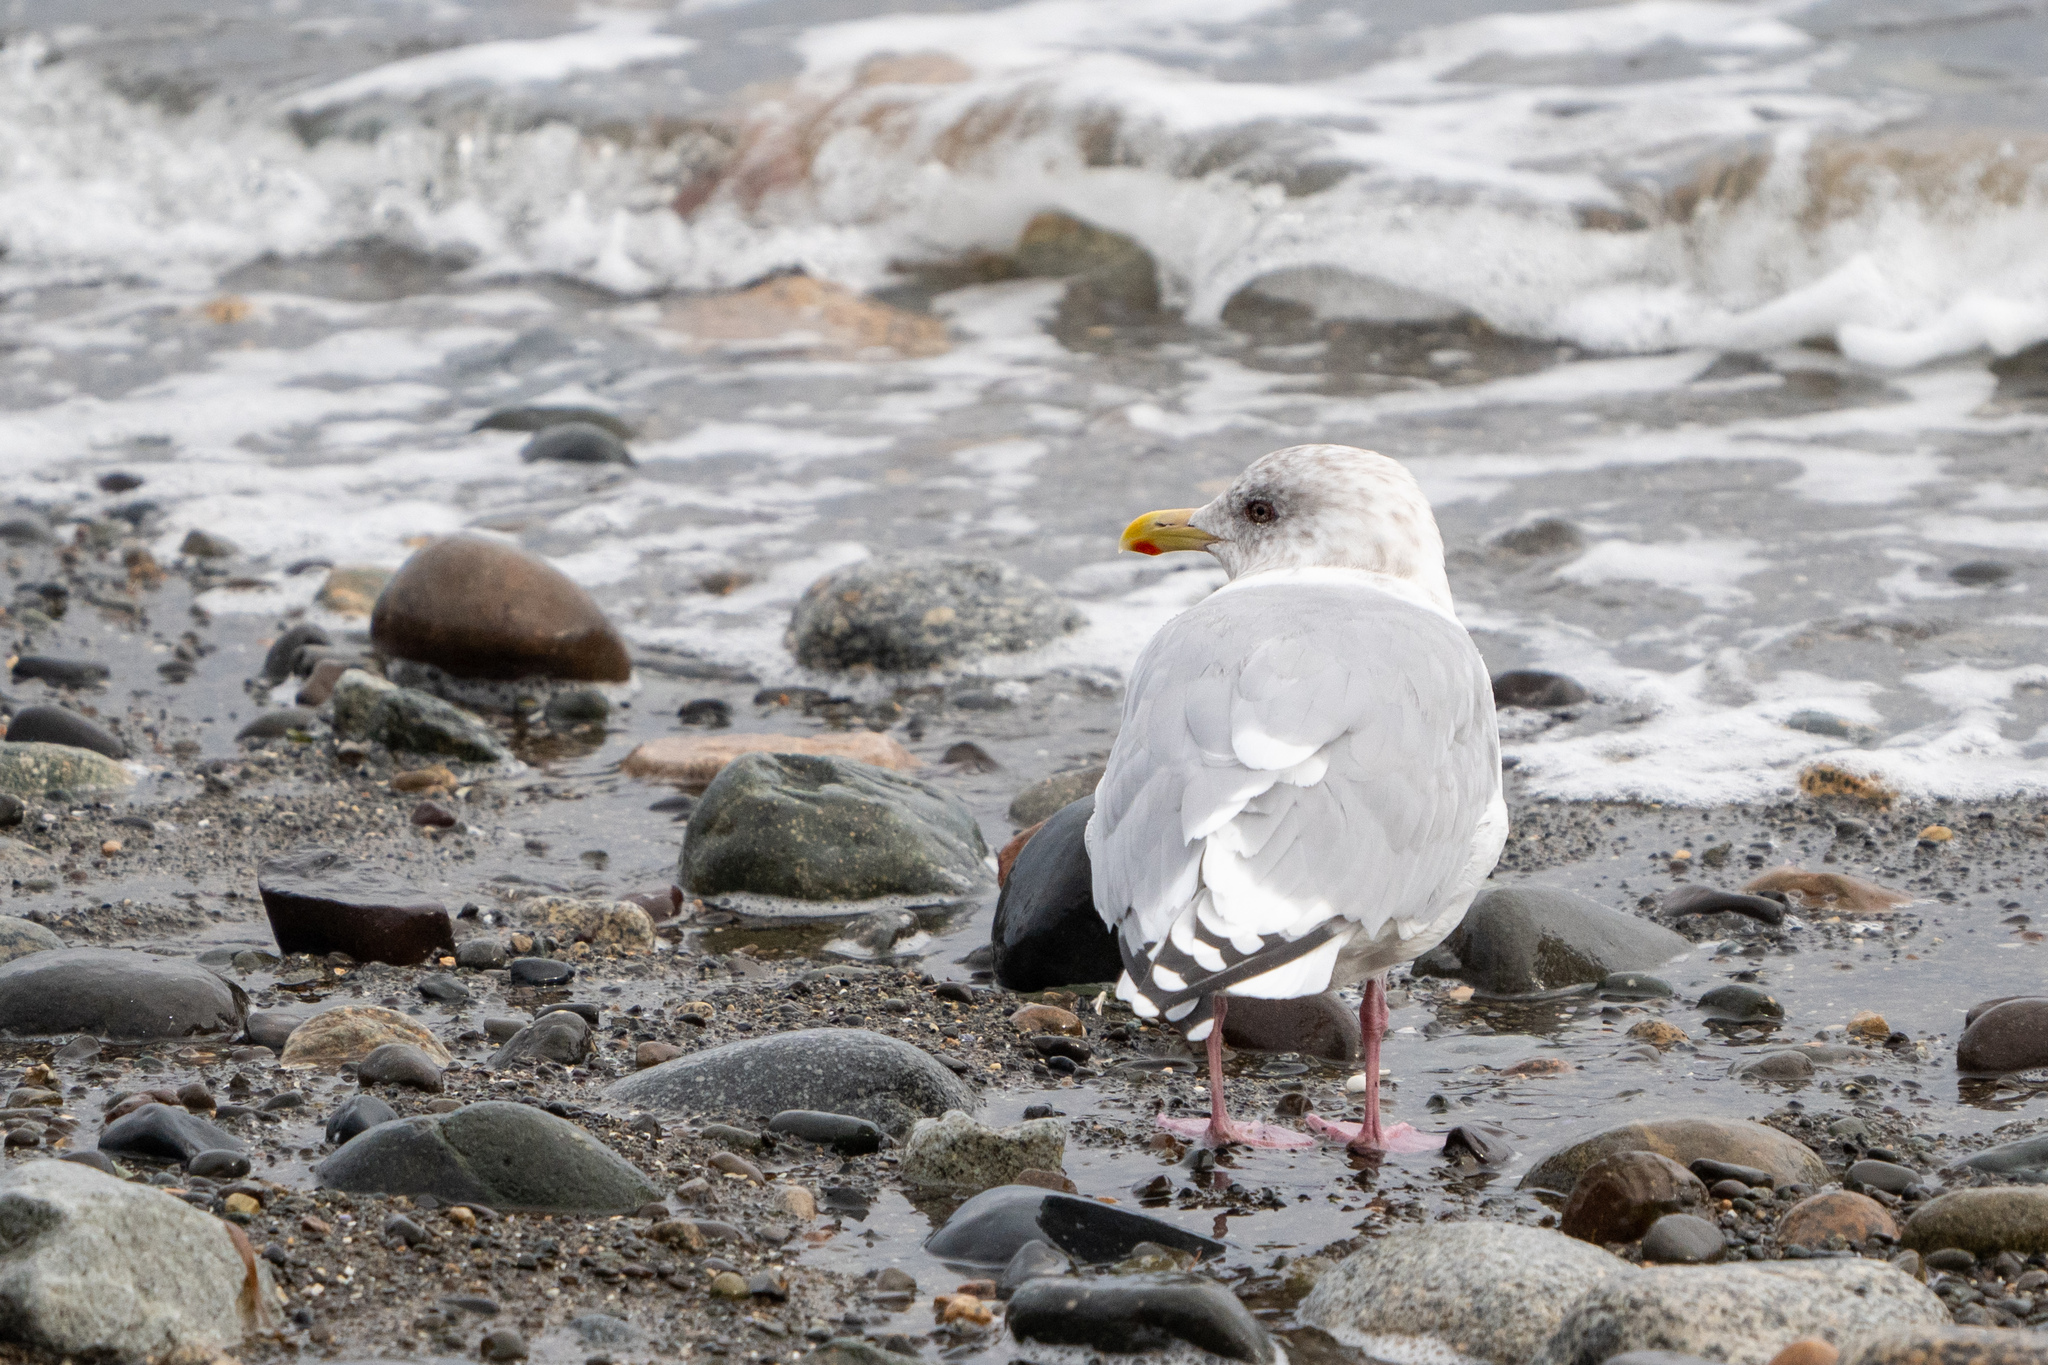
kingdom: Animalia
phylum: Chordata
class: Aves
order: Charadriiformes
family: Laridae
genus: Larus
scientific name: Larus glaucoides
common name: Iceland gull
